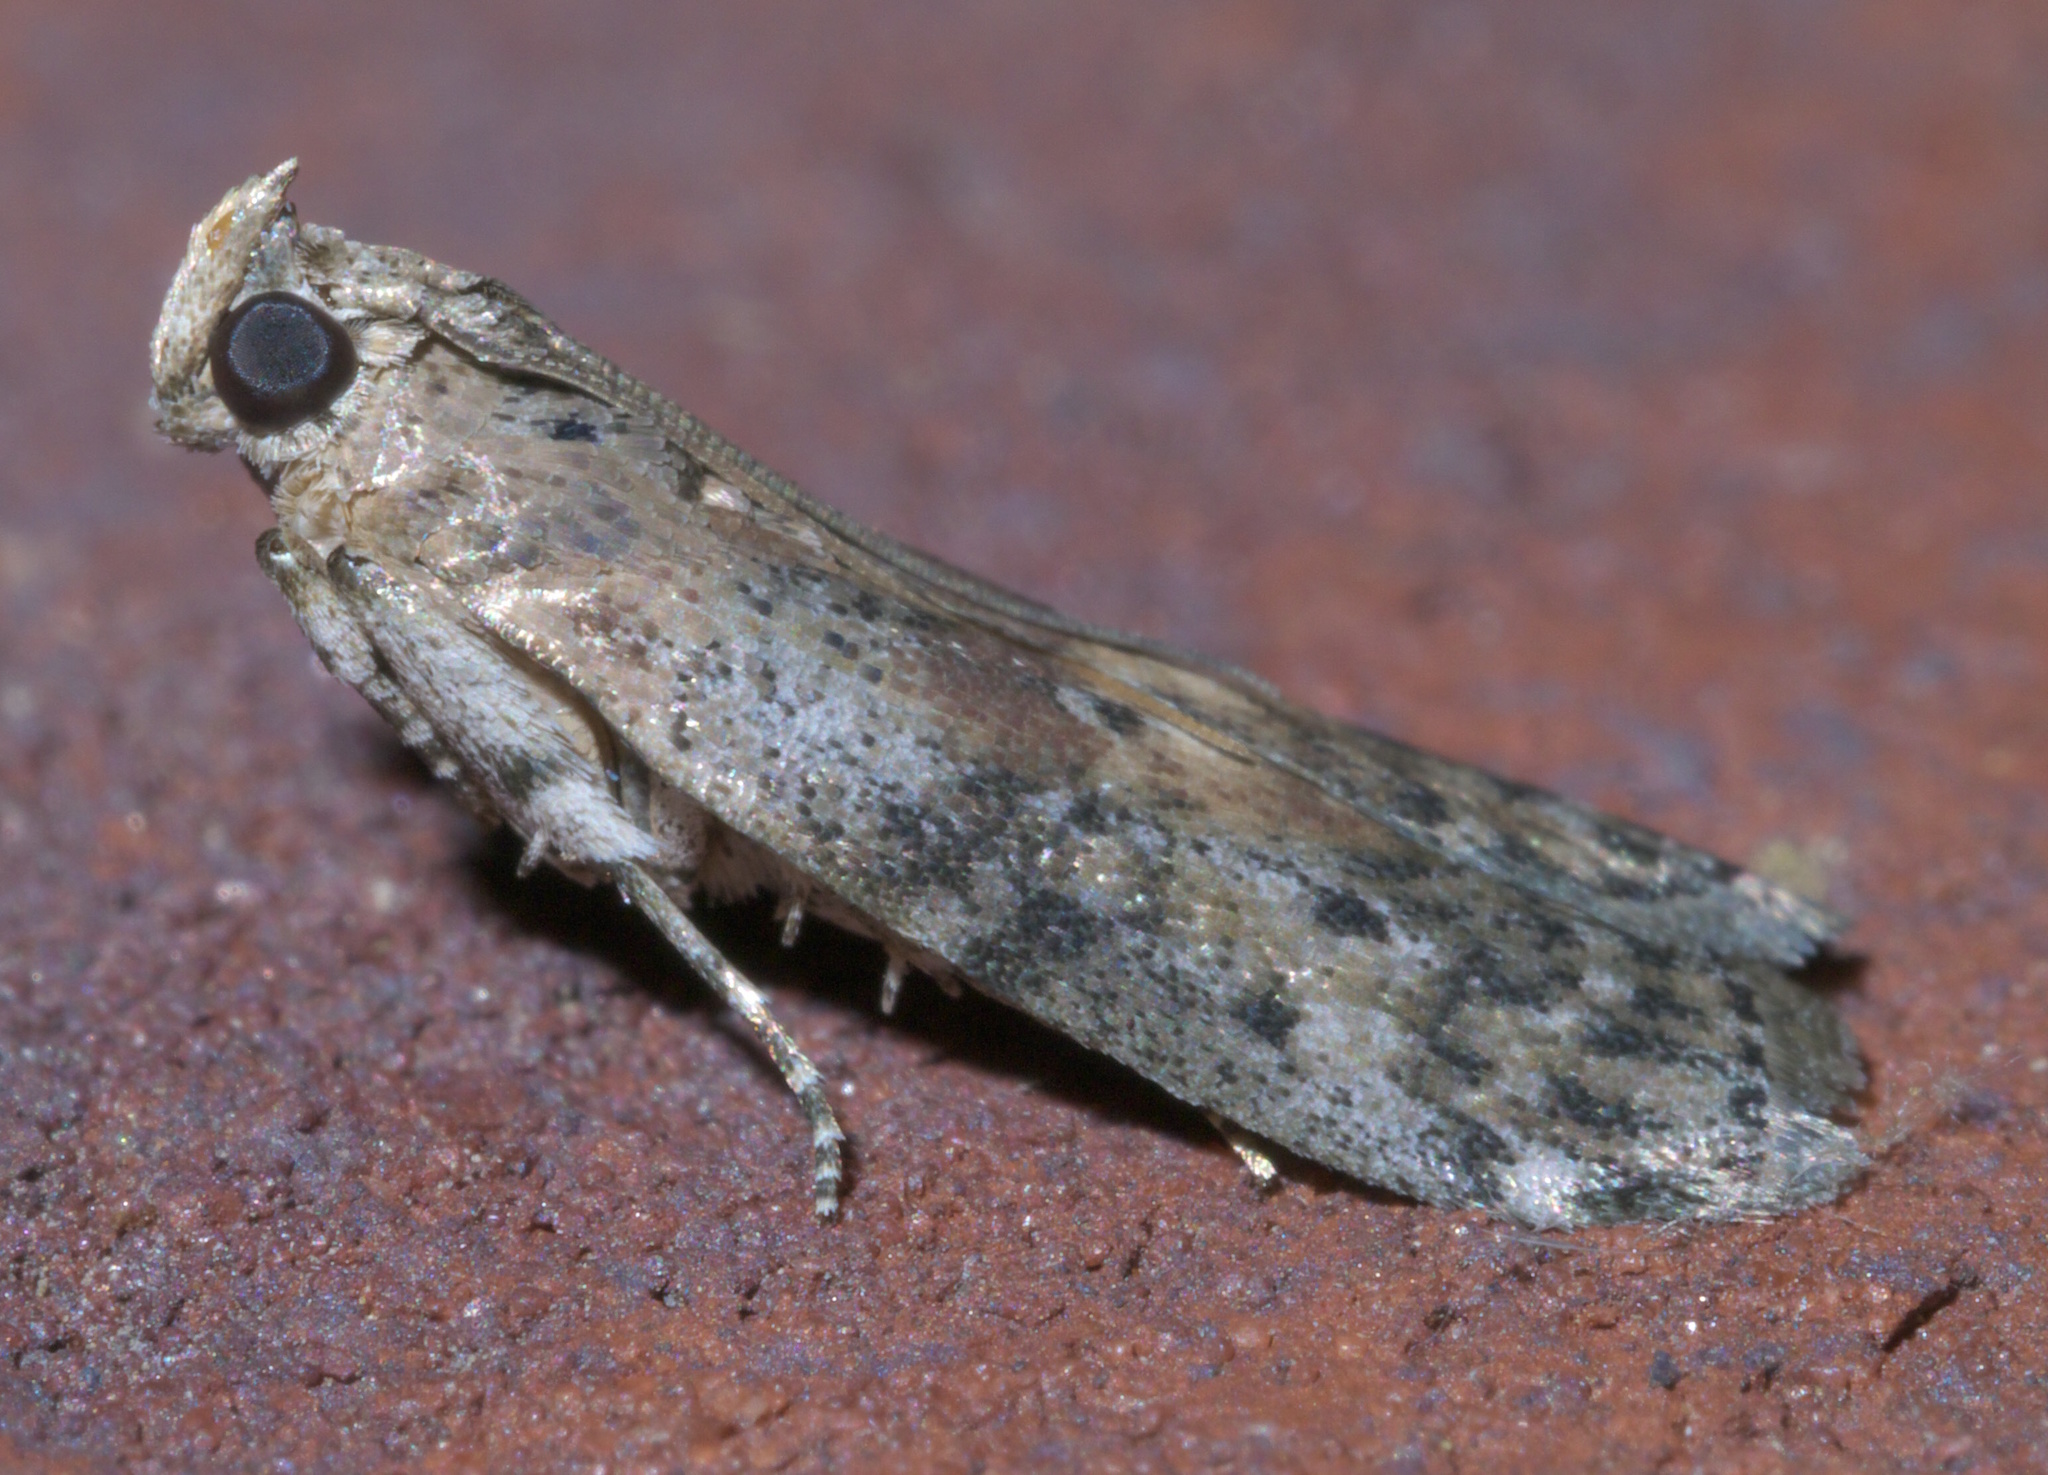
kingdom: Animalia
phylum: Arthropoda
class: Insecta
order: Lepidoptera
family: Pyralidae
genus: Sciota
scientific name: Sciota celtidella
